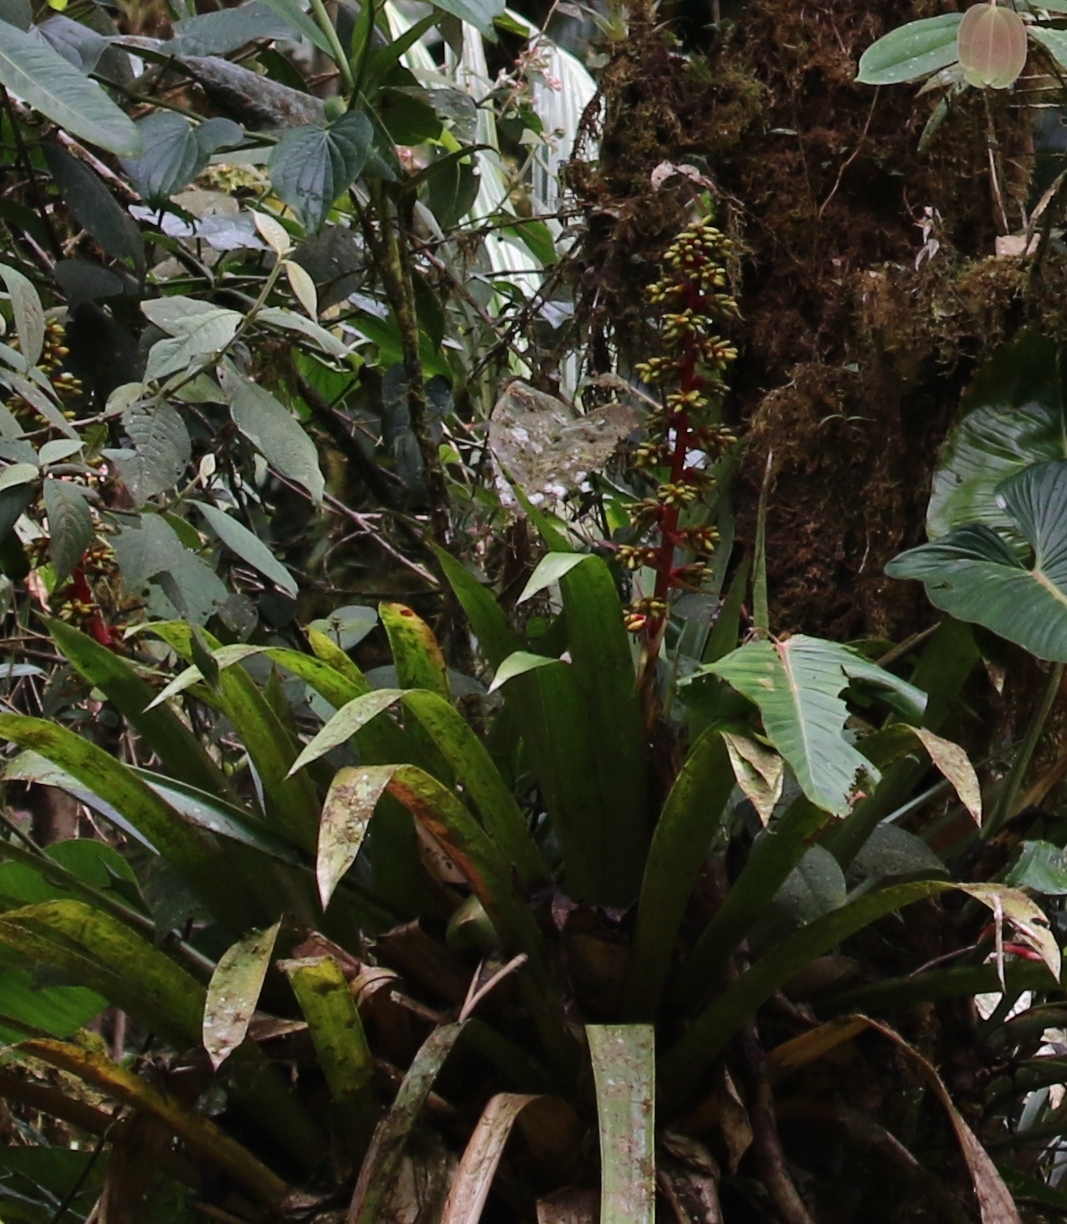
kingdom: Plantae
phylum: Tracheophyta
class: Liliopsida
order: Poales
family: Bromeliaceae
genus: Guzmania
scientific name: Guzmania testudinis
